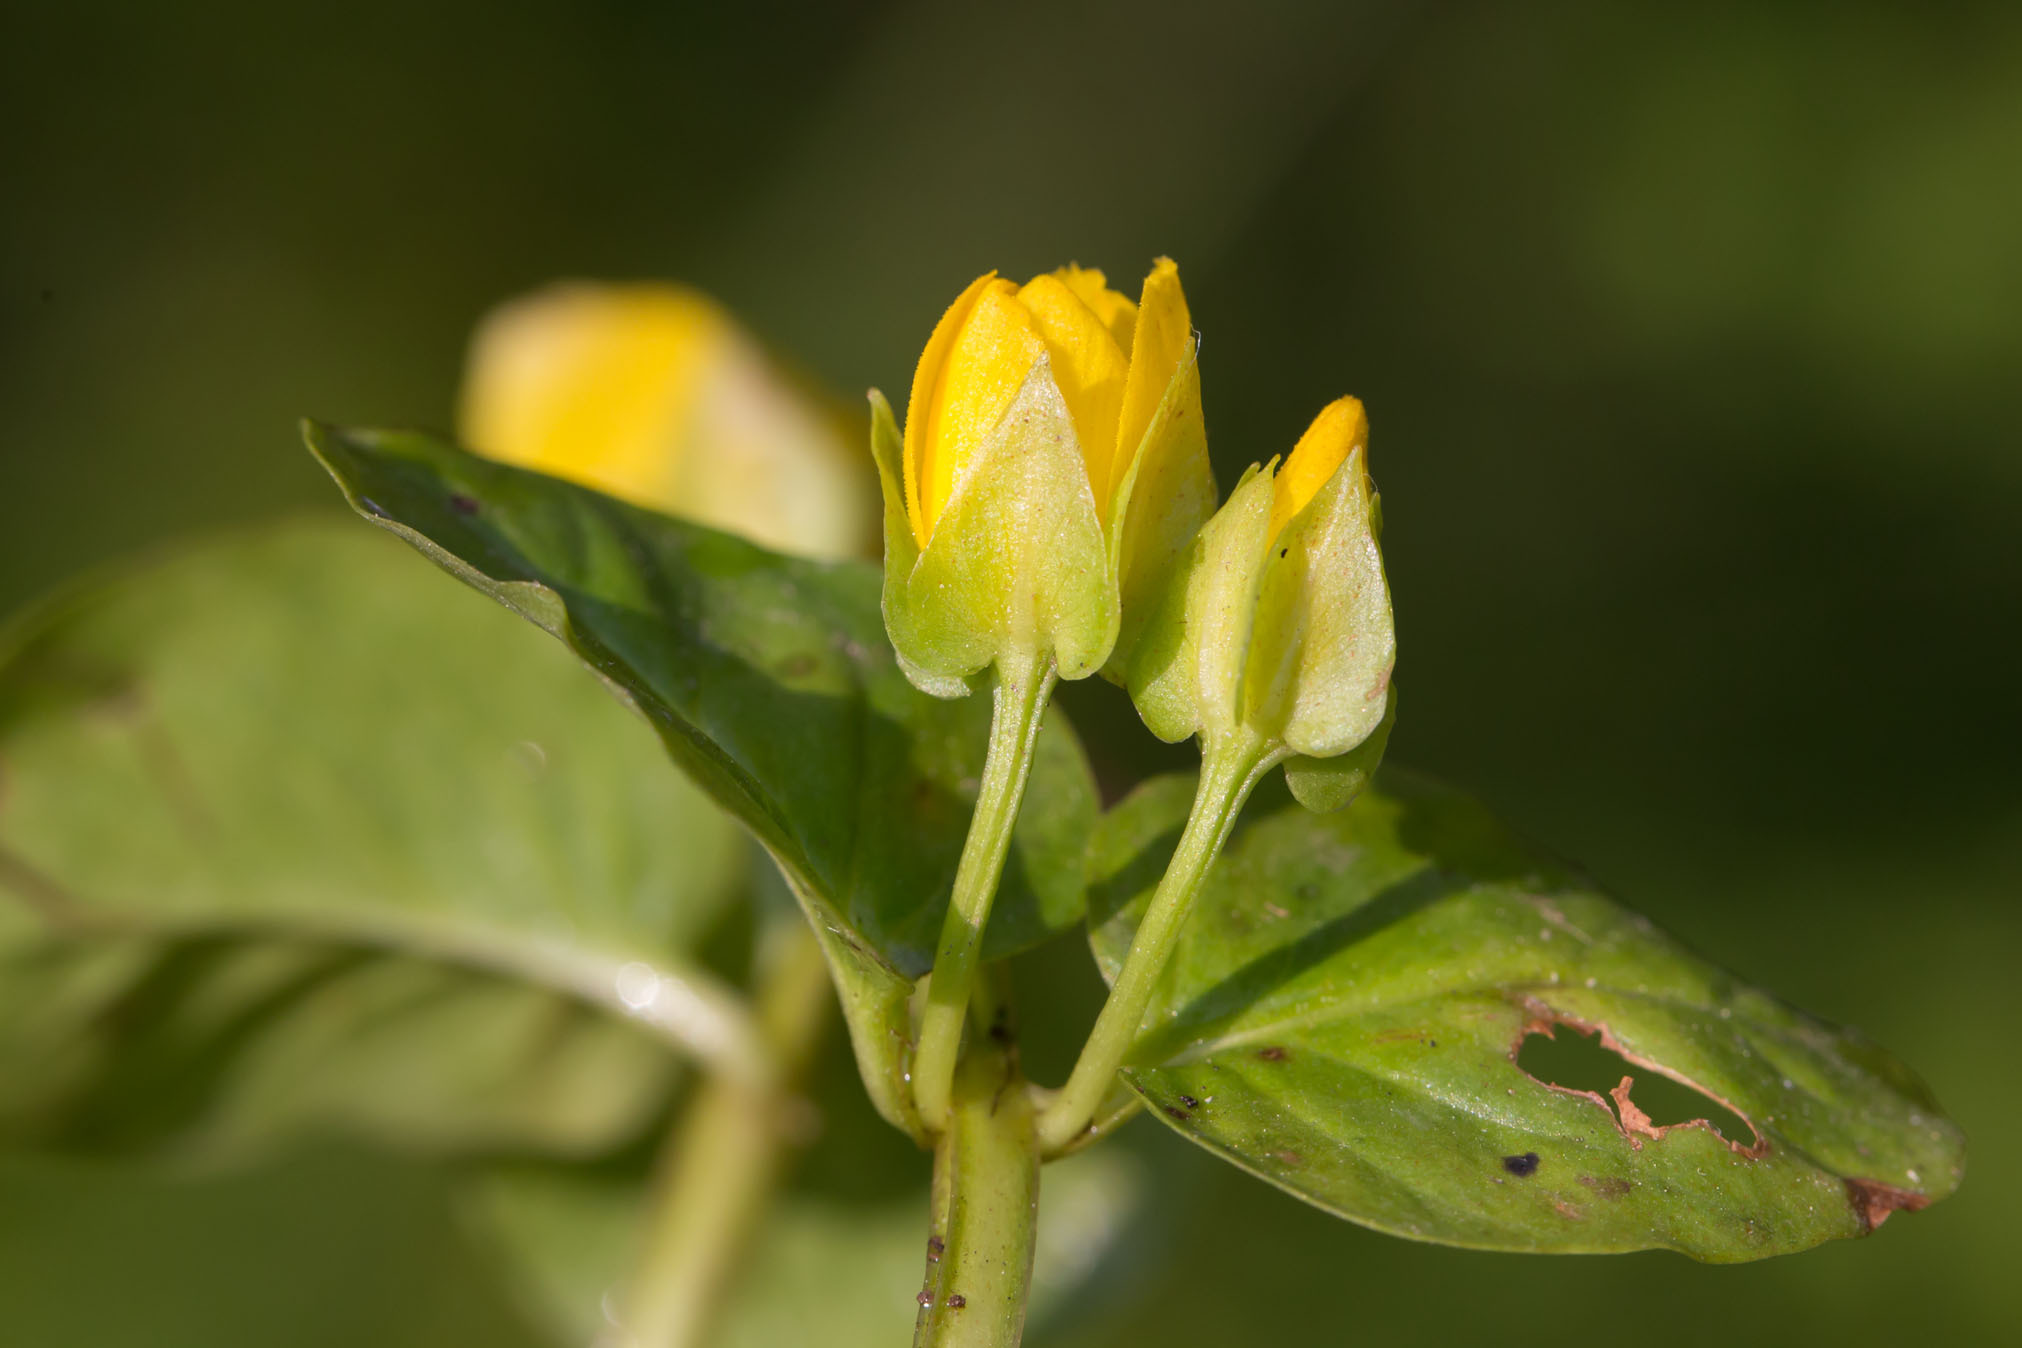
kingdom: Plantae
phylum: Tracheophyta
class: Magnoliopsida
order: Ericales
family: Primulaceae
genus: Lysimachia
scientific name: Lysimachia nummularia
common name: Moneywort
